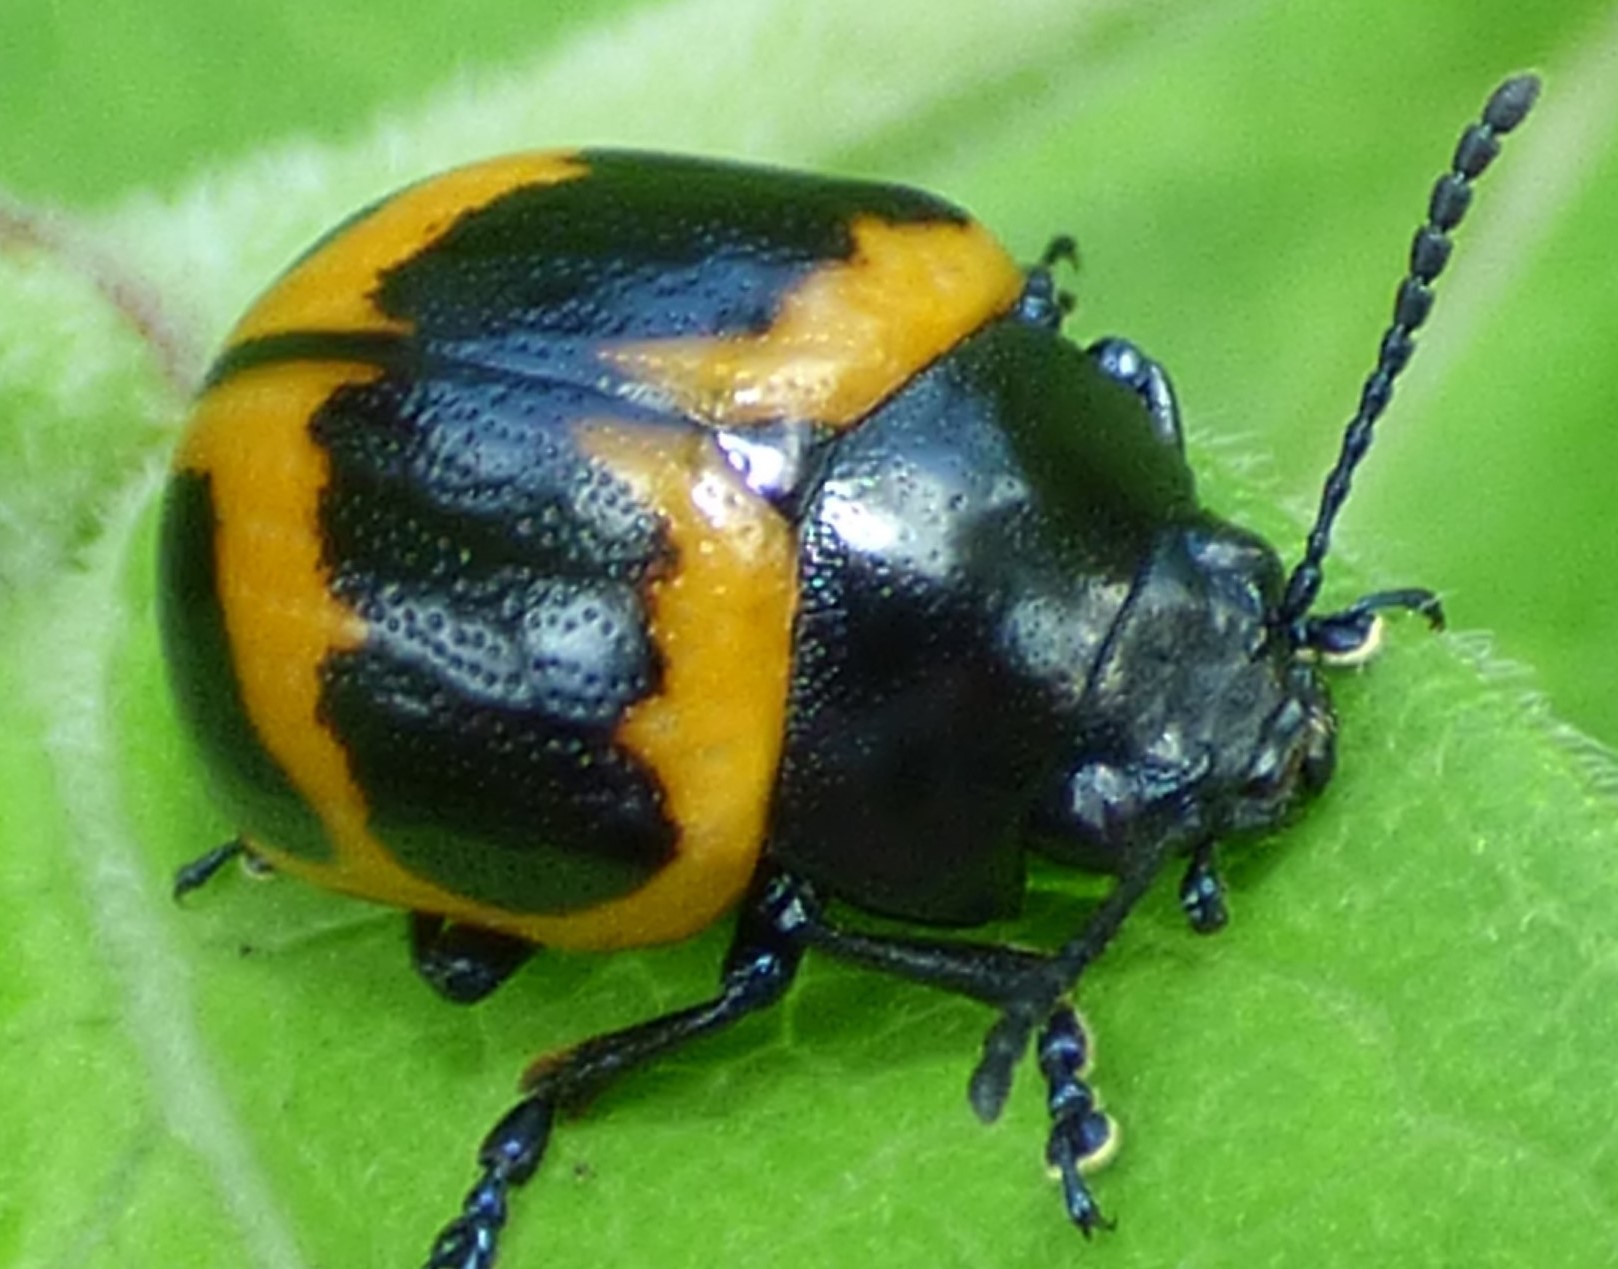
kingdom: Animalia
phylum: Arthropoda
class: Insecta
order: Coleoptera
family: Chrysomelidae
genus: Labidomera
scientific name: Labidomera clivicollis
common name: Swamp milkweed leaf beetle
